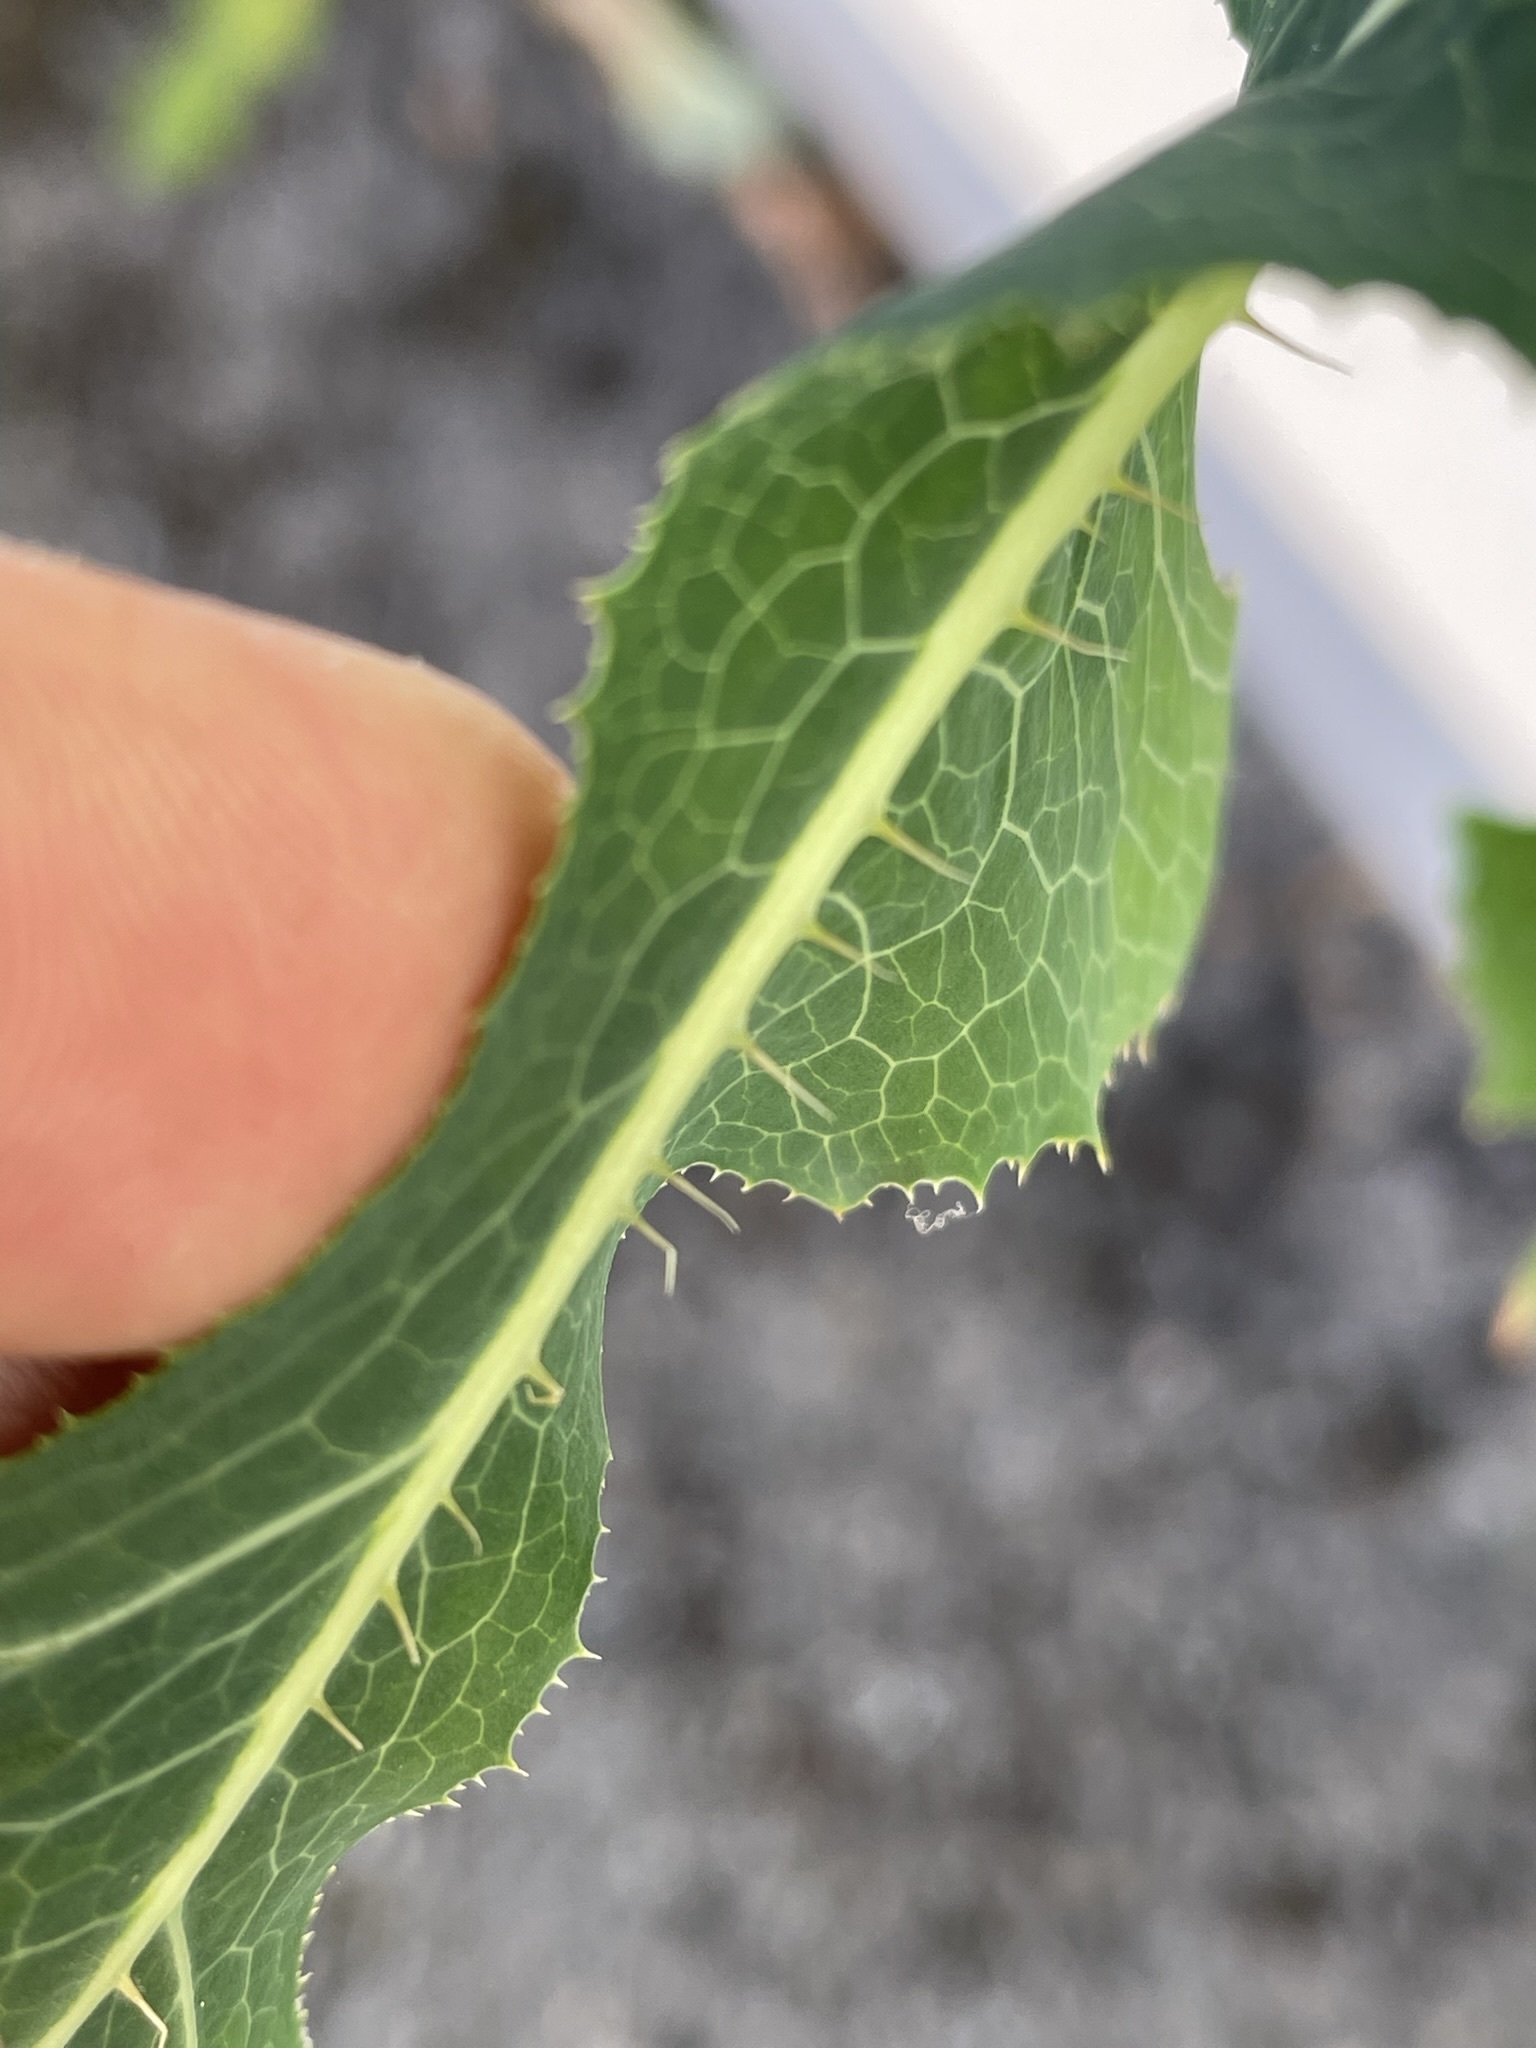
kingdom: Plantae
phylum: Tracheophyta
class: Magnoliopsida
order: Asterales
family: Asteraceae
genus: Lactuca
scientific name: Lactuca serriola
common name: Prickly lettuce
